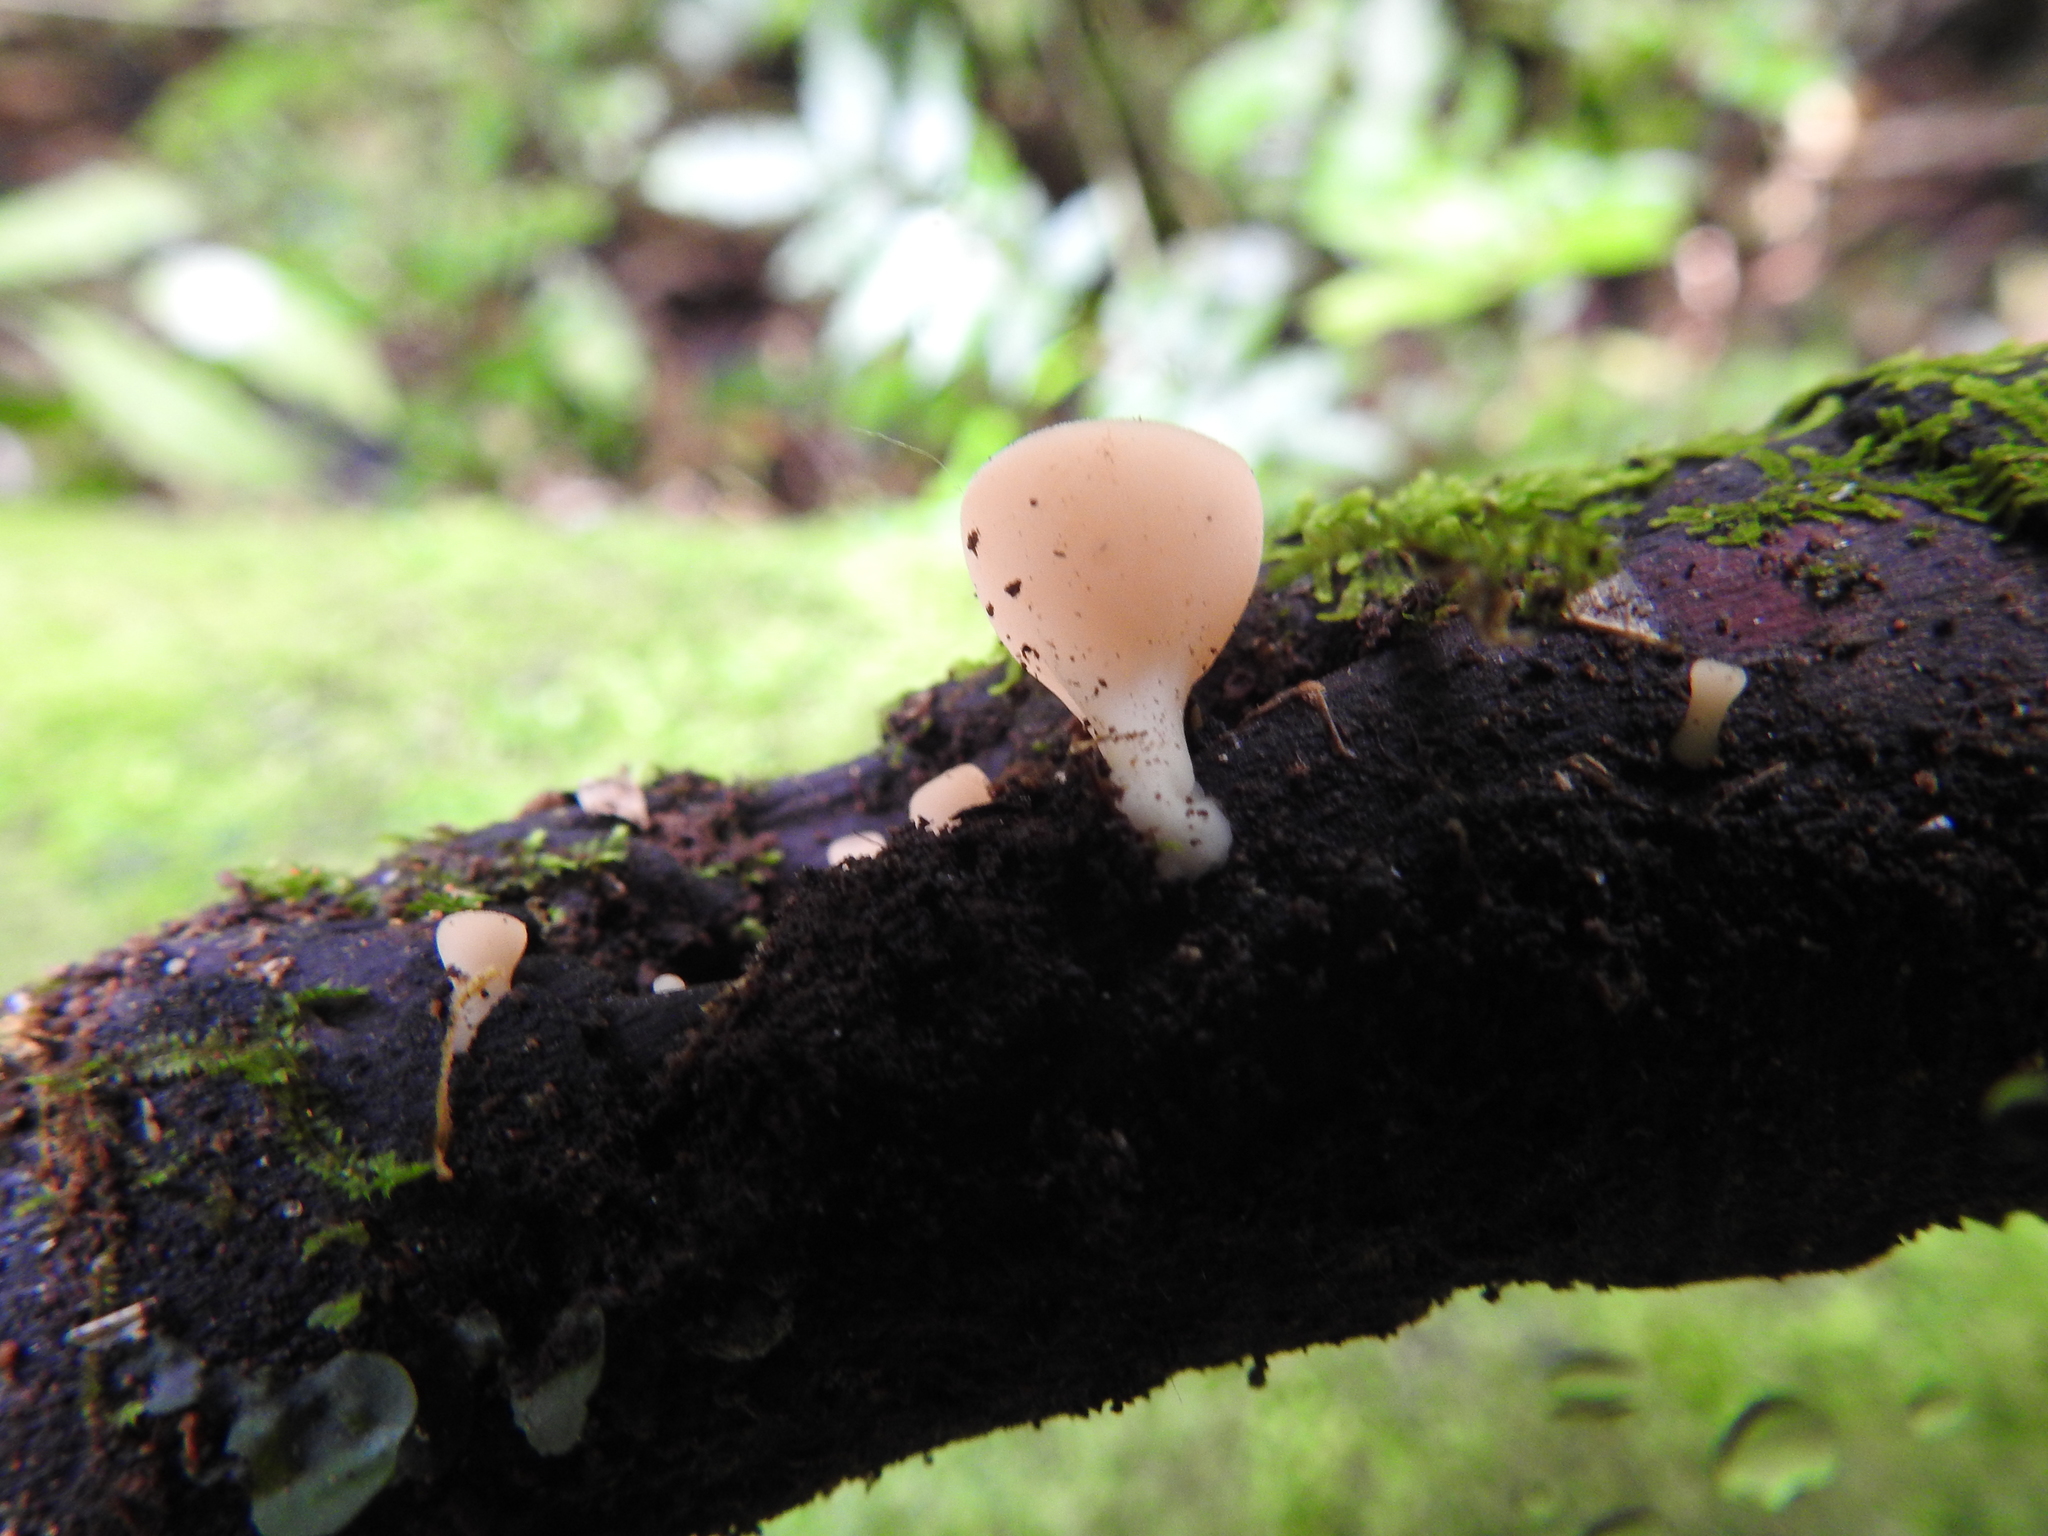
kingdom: Fungi
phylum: Ascomycota
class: Pezizomycetes
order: Pezizales
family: Sarcoscyphaceae
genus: Cookeina
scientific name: Cookeina colensoi
